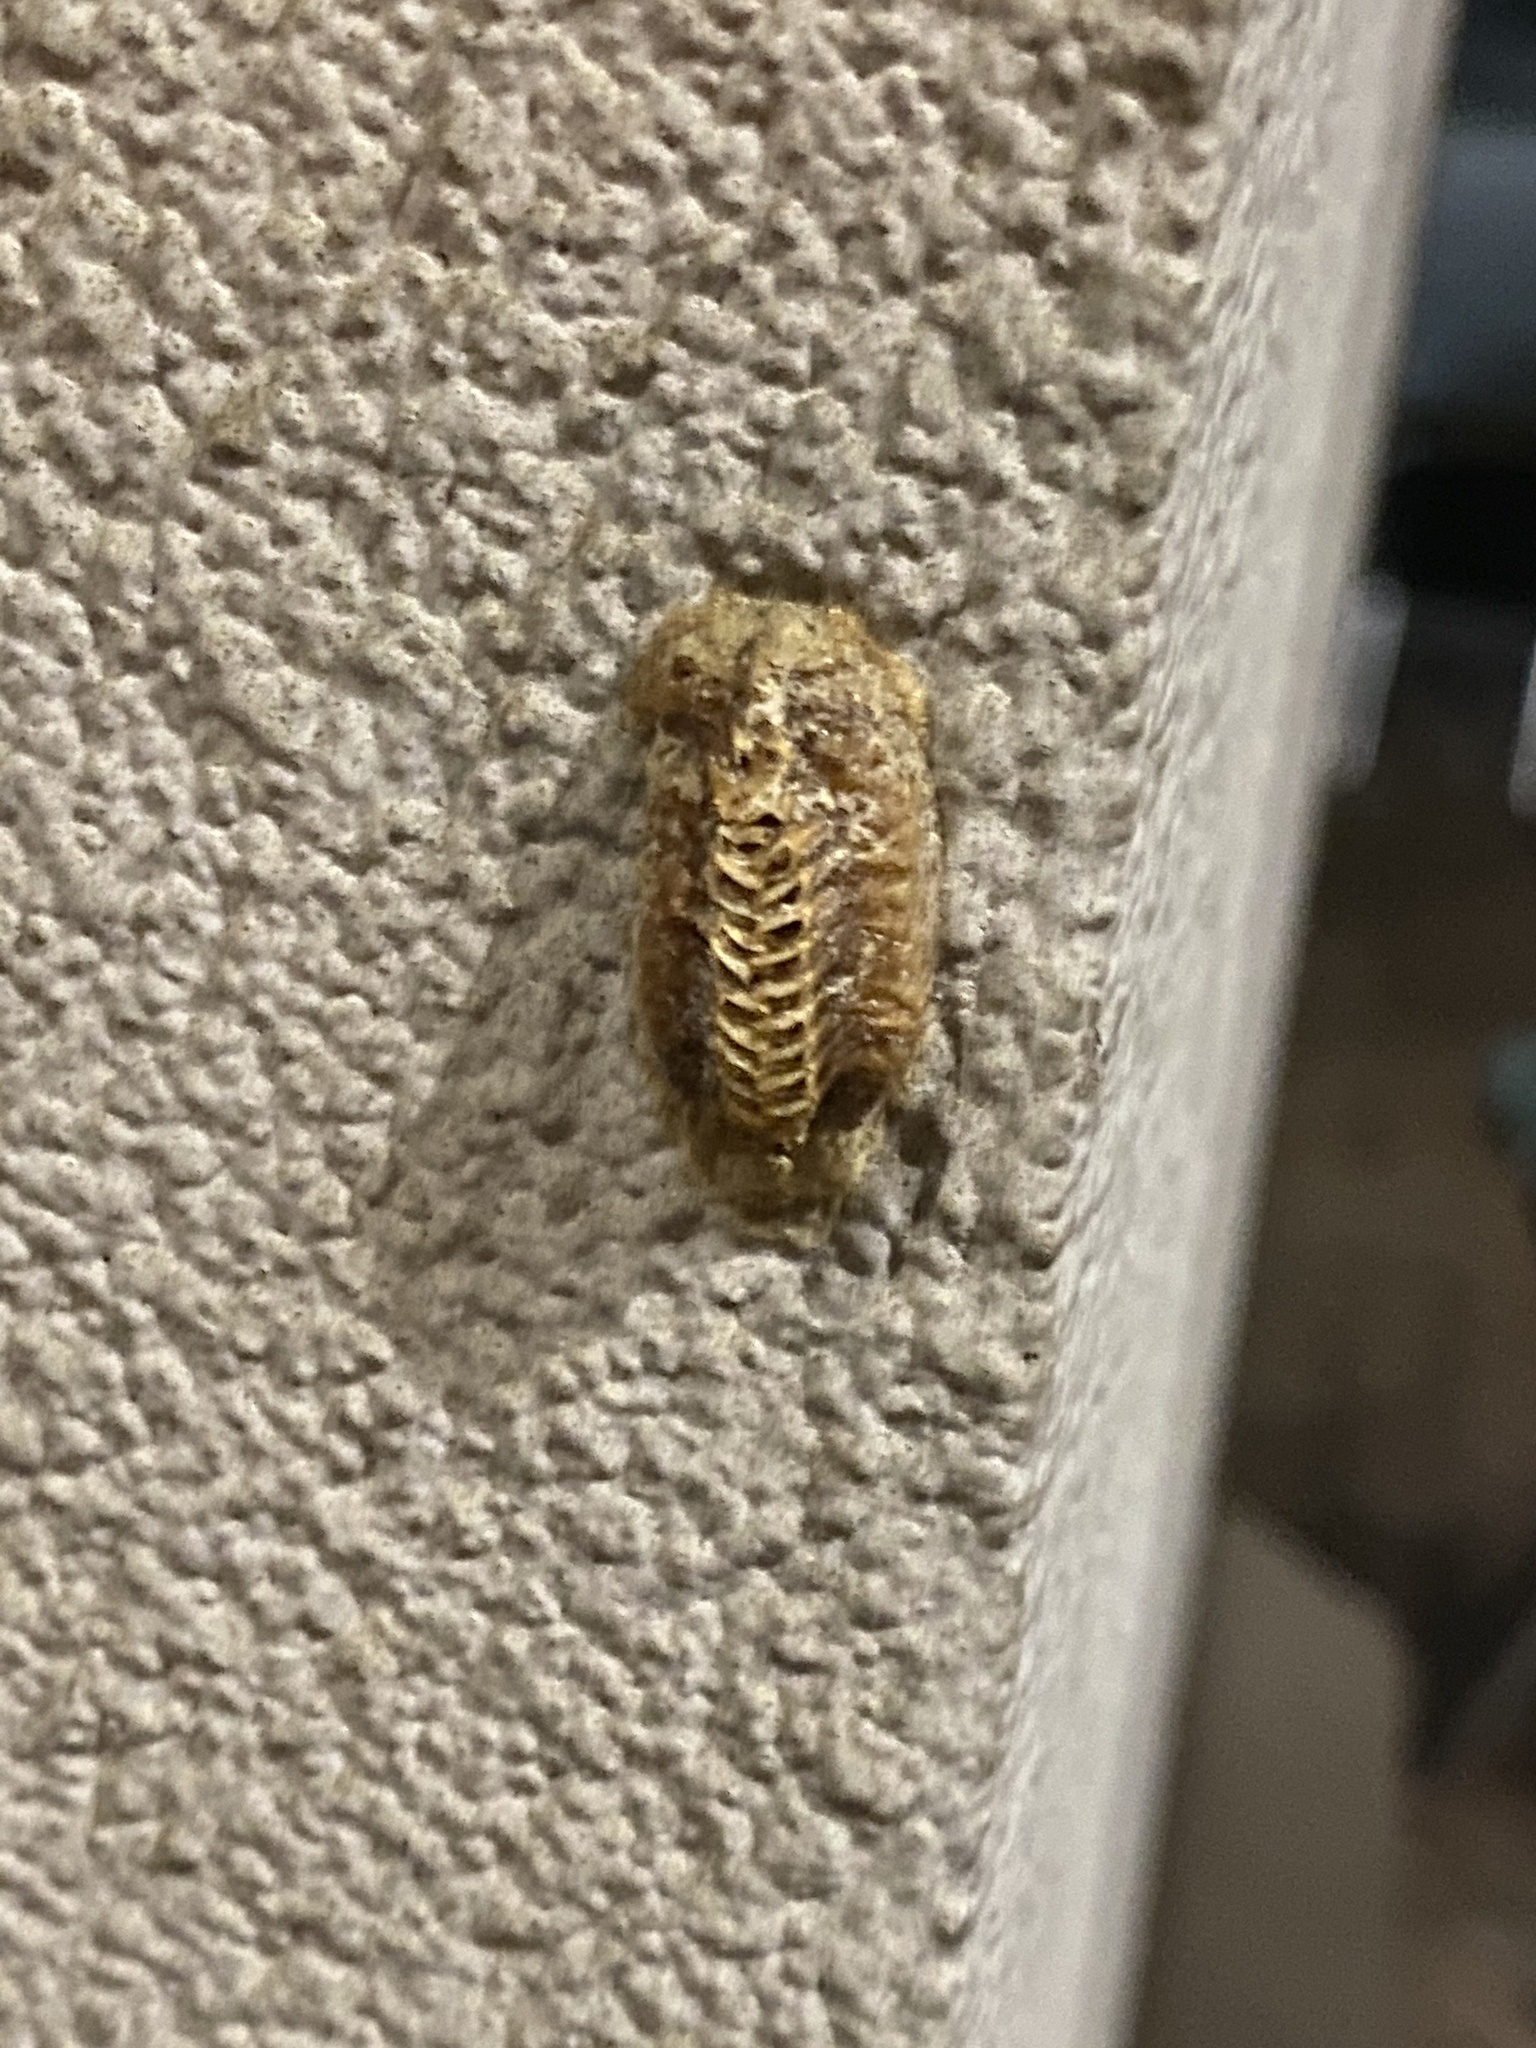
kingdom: Animalia
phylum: Arthropoda
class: Insecta
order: Mantodea
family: Mantidae
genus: Stagmomantis
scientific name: Stagmomantis carolina
